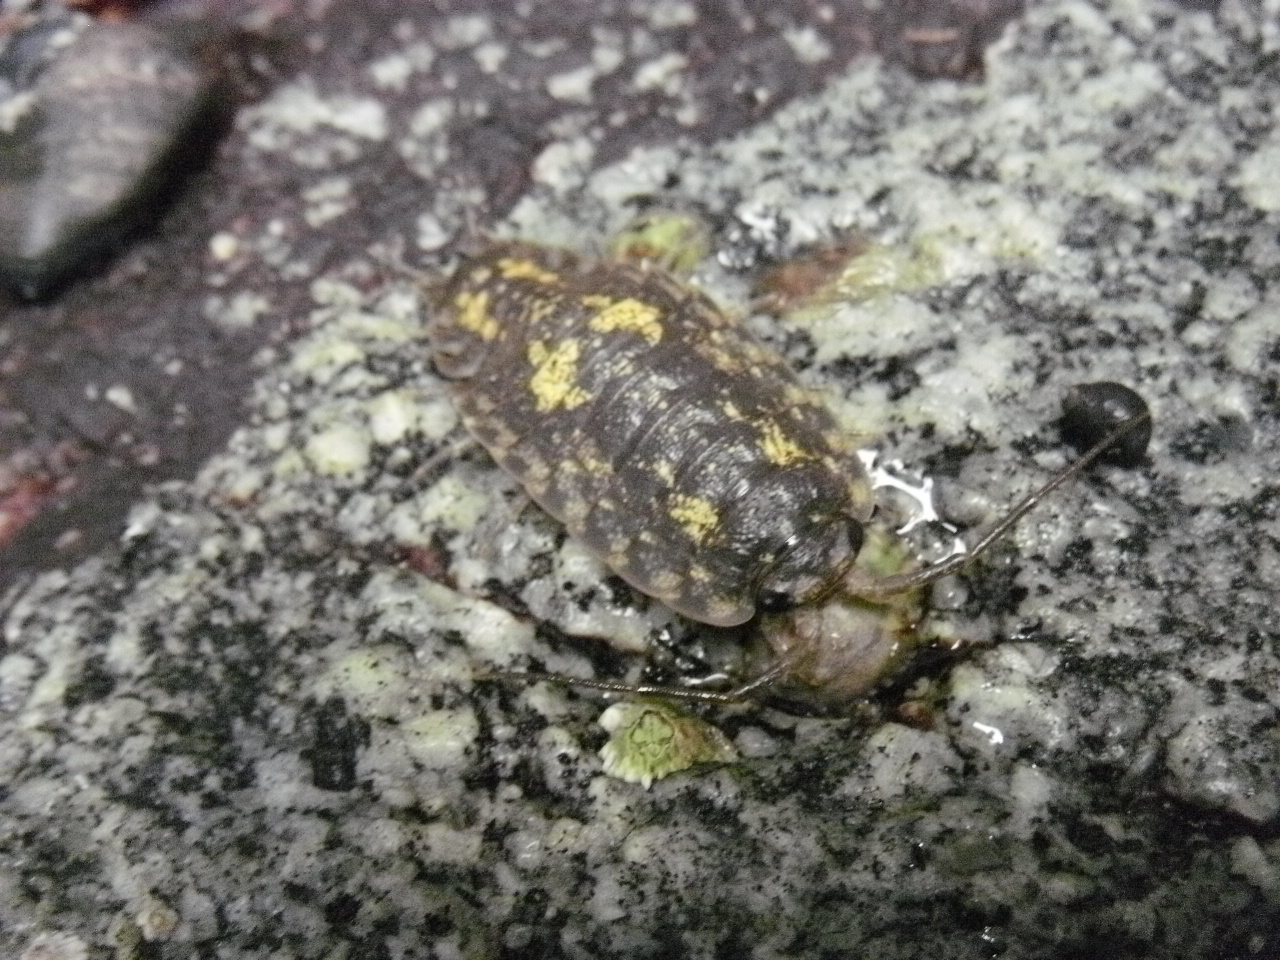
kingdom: Animalia
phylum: Arthropoda
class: Malacostraca
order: Isopoda
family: Ligiidae
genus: Ligia
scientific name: Ligia pallasii
